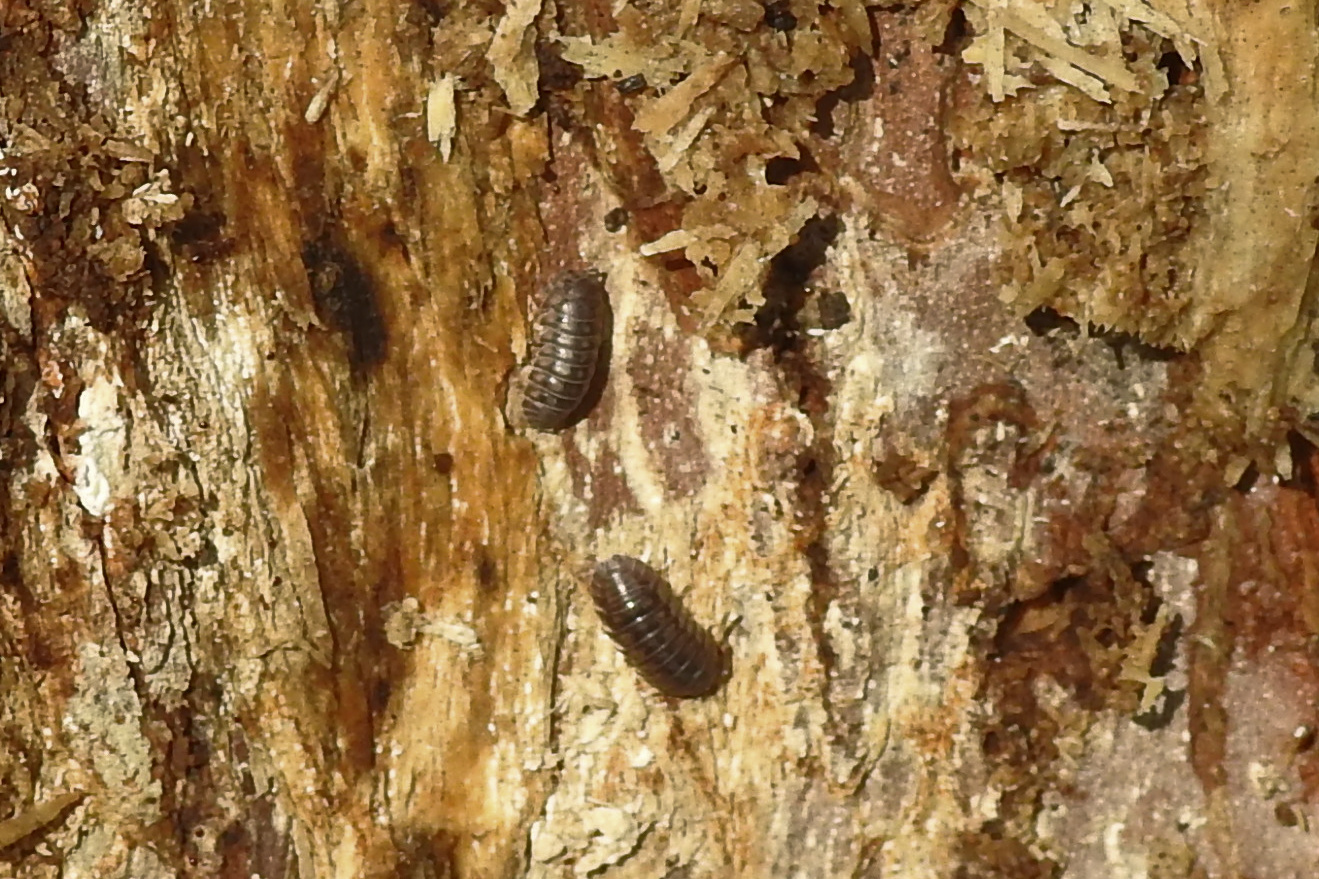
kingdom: Animalia
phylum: Arthropoda
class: Malacostraca
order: Isopoda
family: Armadillidiidae
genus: Armadillidium
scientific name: Armadillidium nasatum
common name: Isopod
